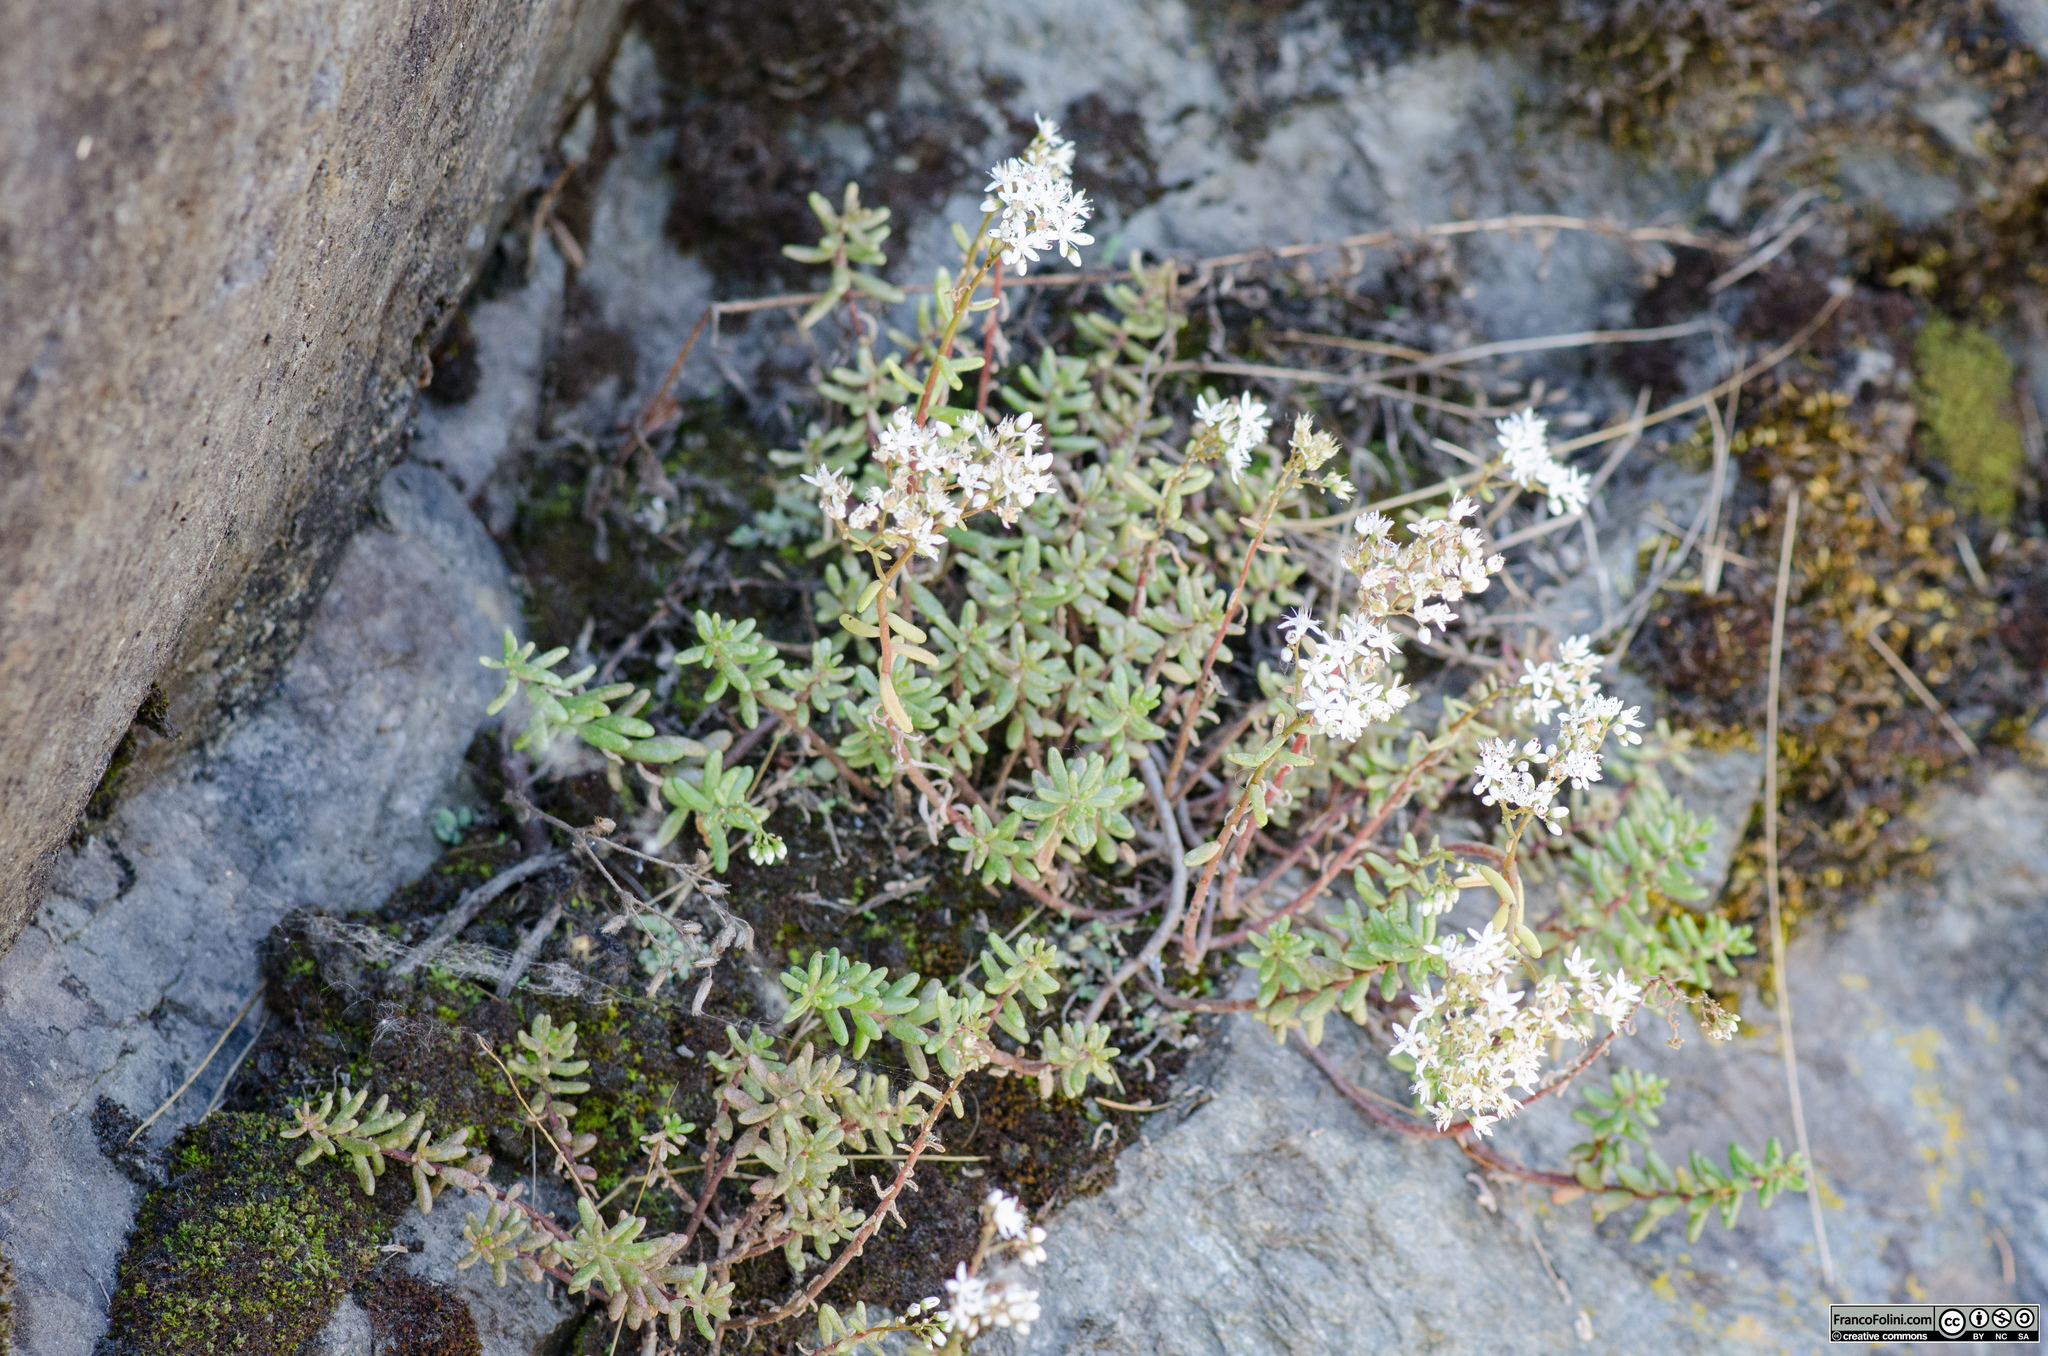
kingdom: Plantae
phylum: Tracheophyta
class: Magnoliopsida
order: Saxifragales
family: Crassulaceae
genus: Sedum
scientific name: Sedum album
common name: White stonecrop
